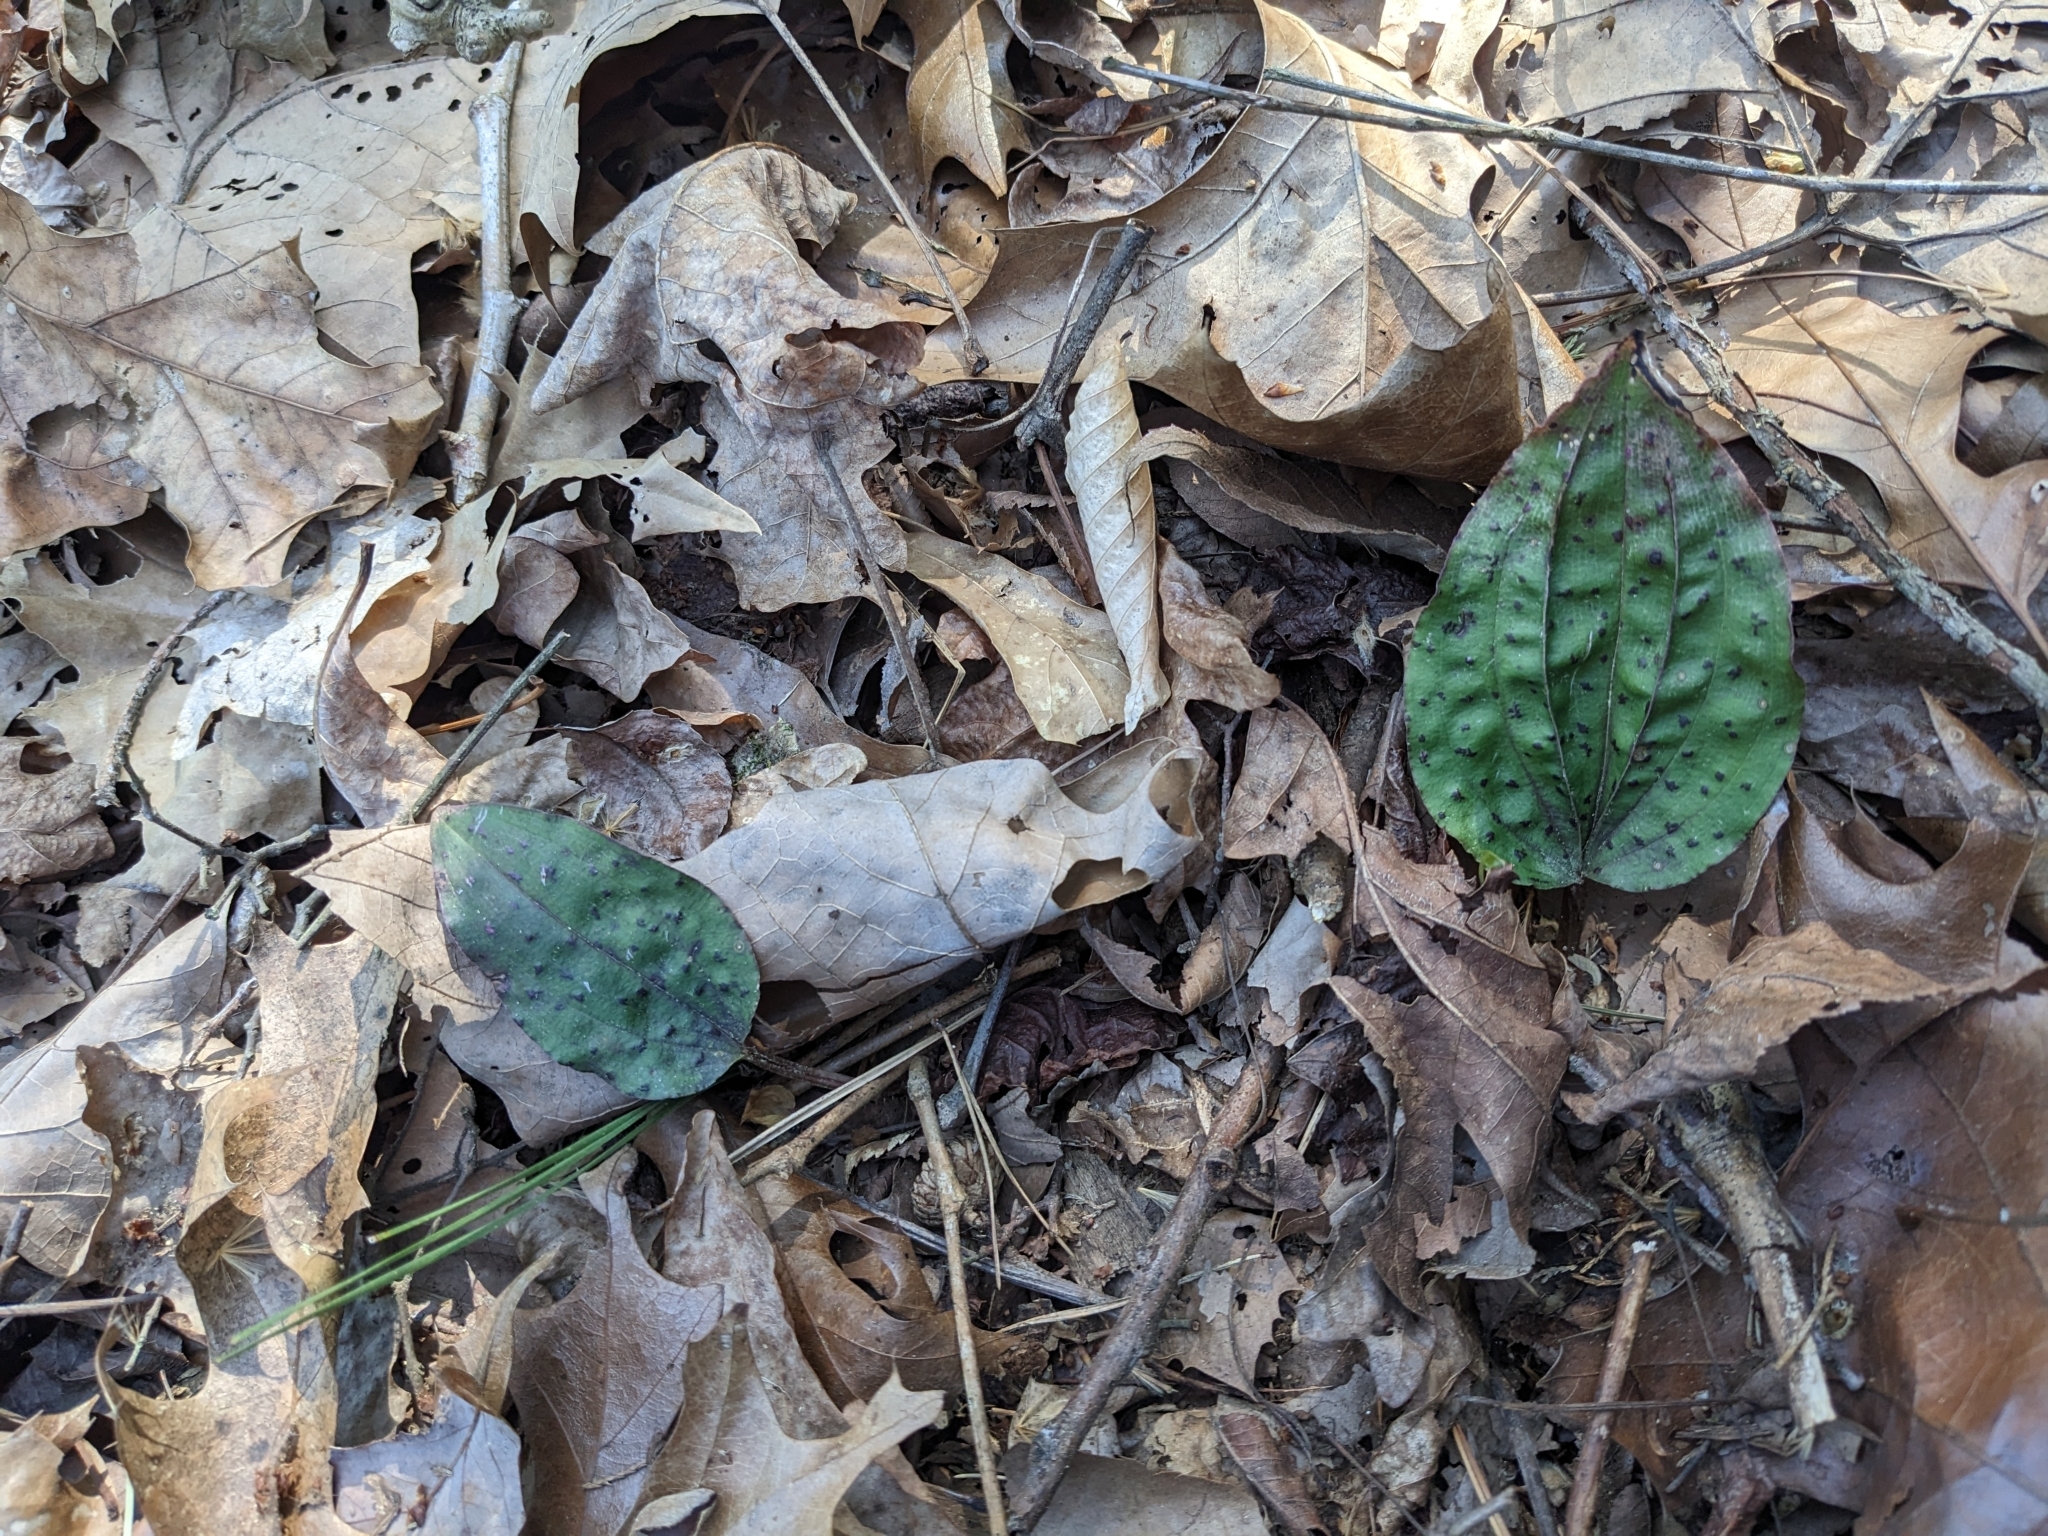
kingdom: Plantae
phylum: Tracheophyta
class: Liliopsida
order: Asparagales
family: Orchidaceae
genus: Tipularia
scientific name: Tipularia discolor
